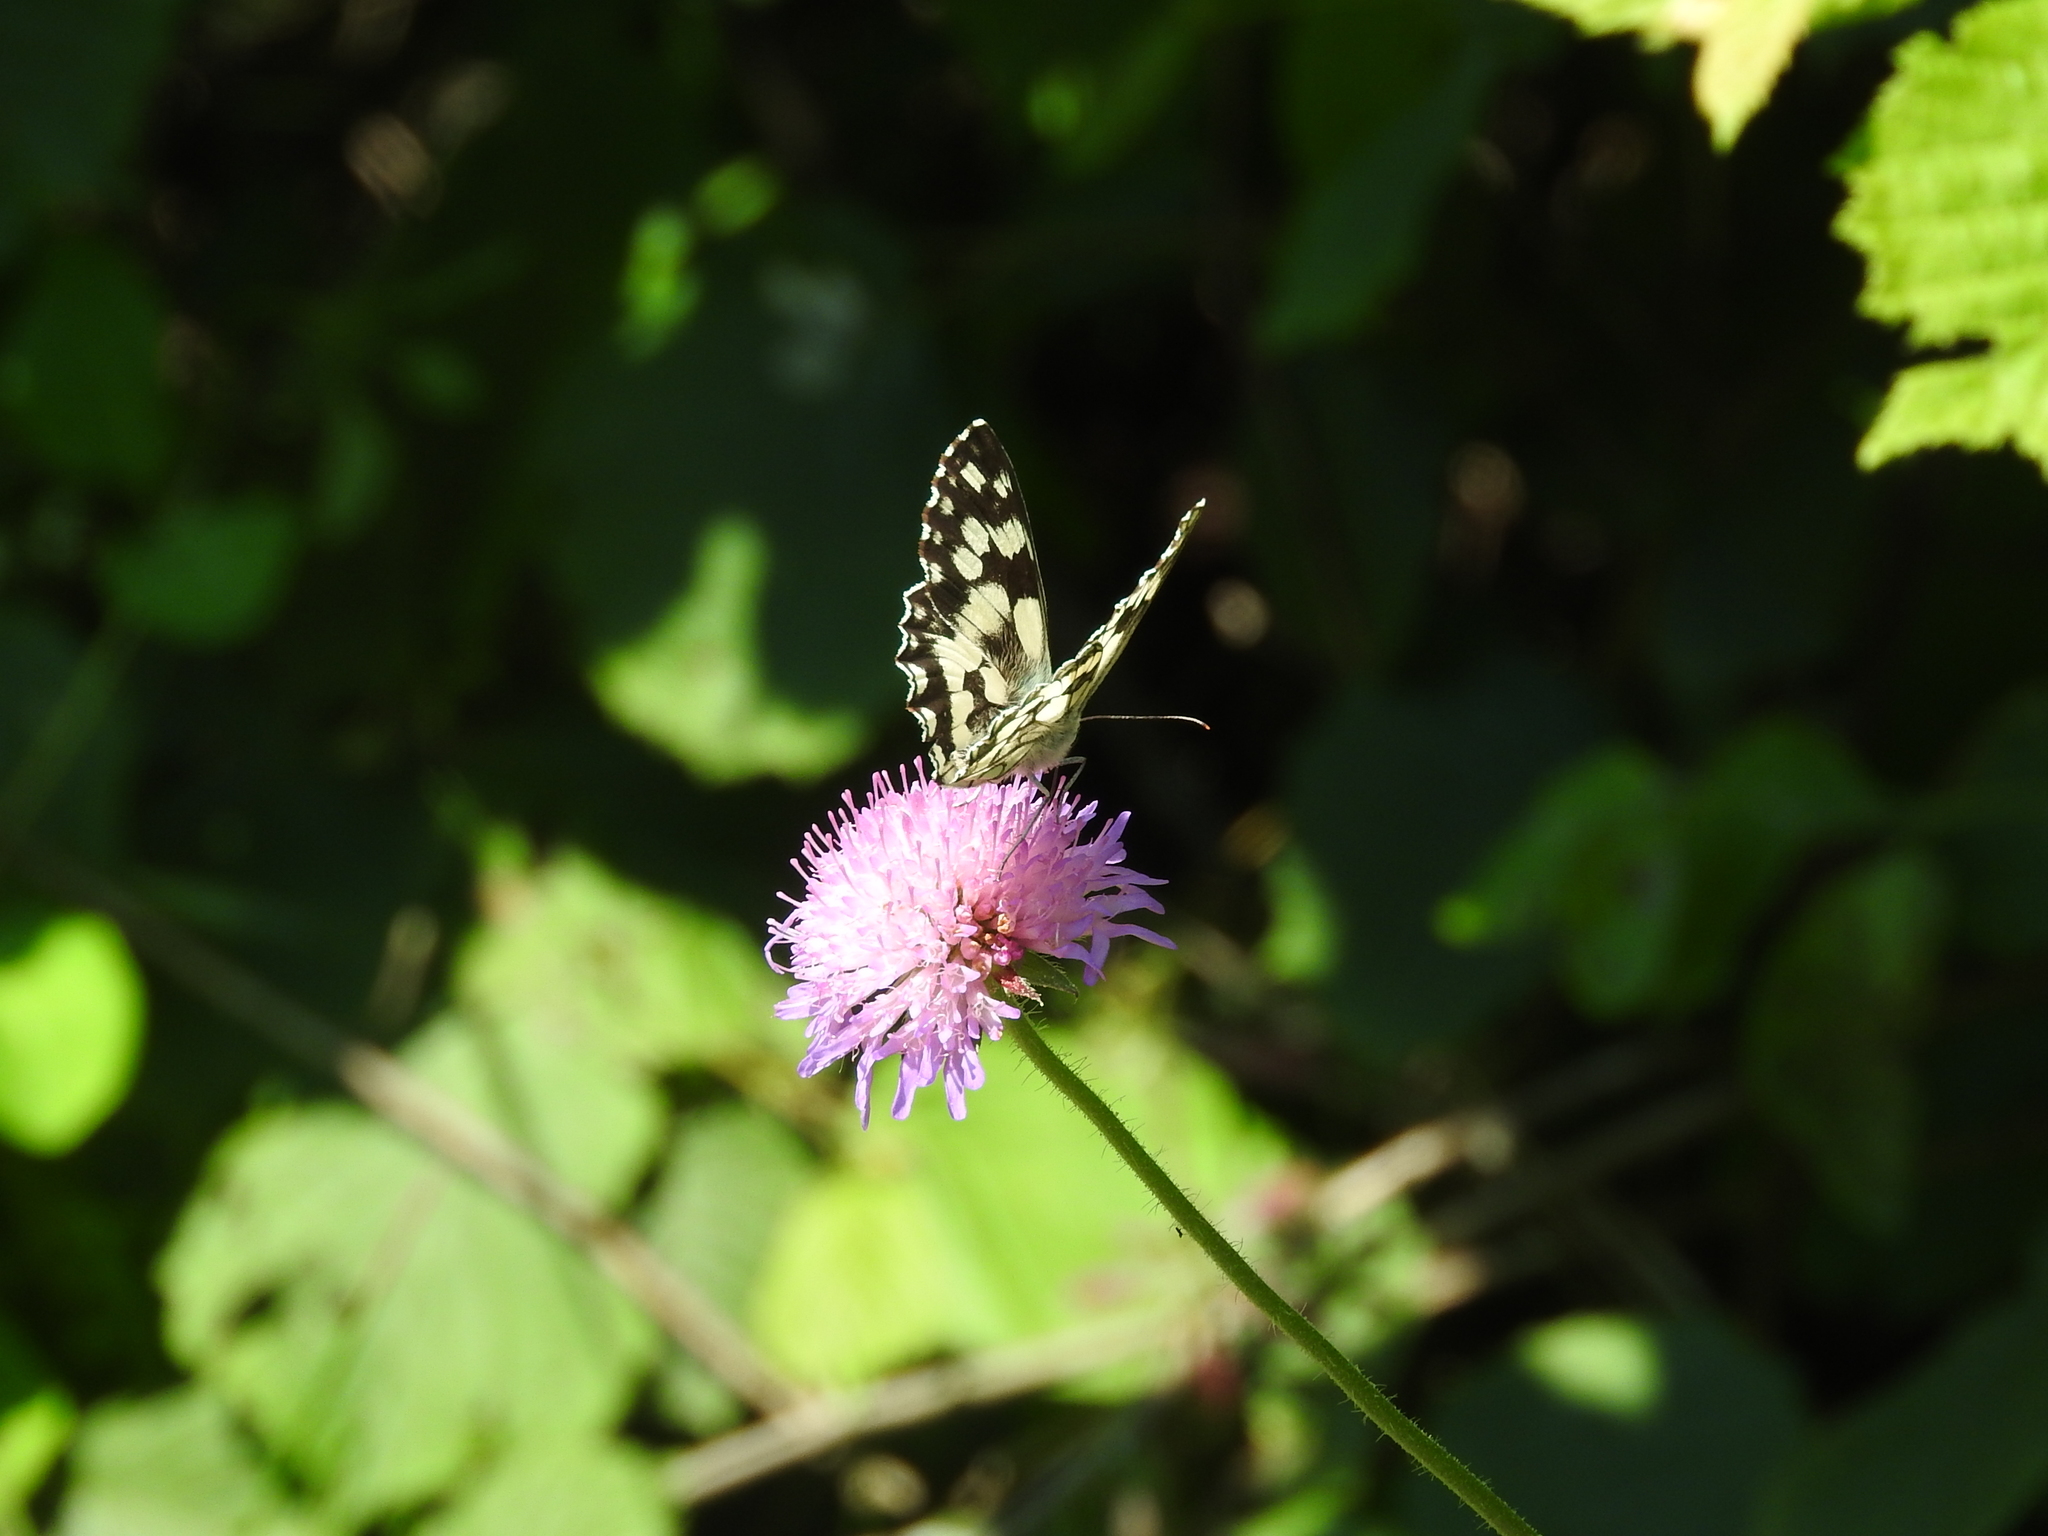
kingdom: Animalia
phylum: Arthropoda
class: Insecta
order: Lepidoptera
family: Nymphalidae
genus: Melanargia
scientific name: Melanargia galathea
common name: Marbled white
